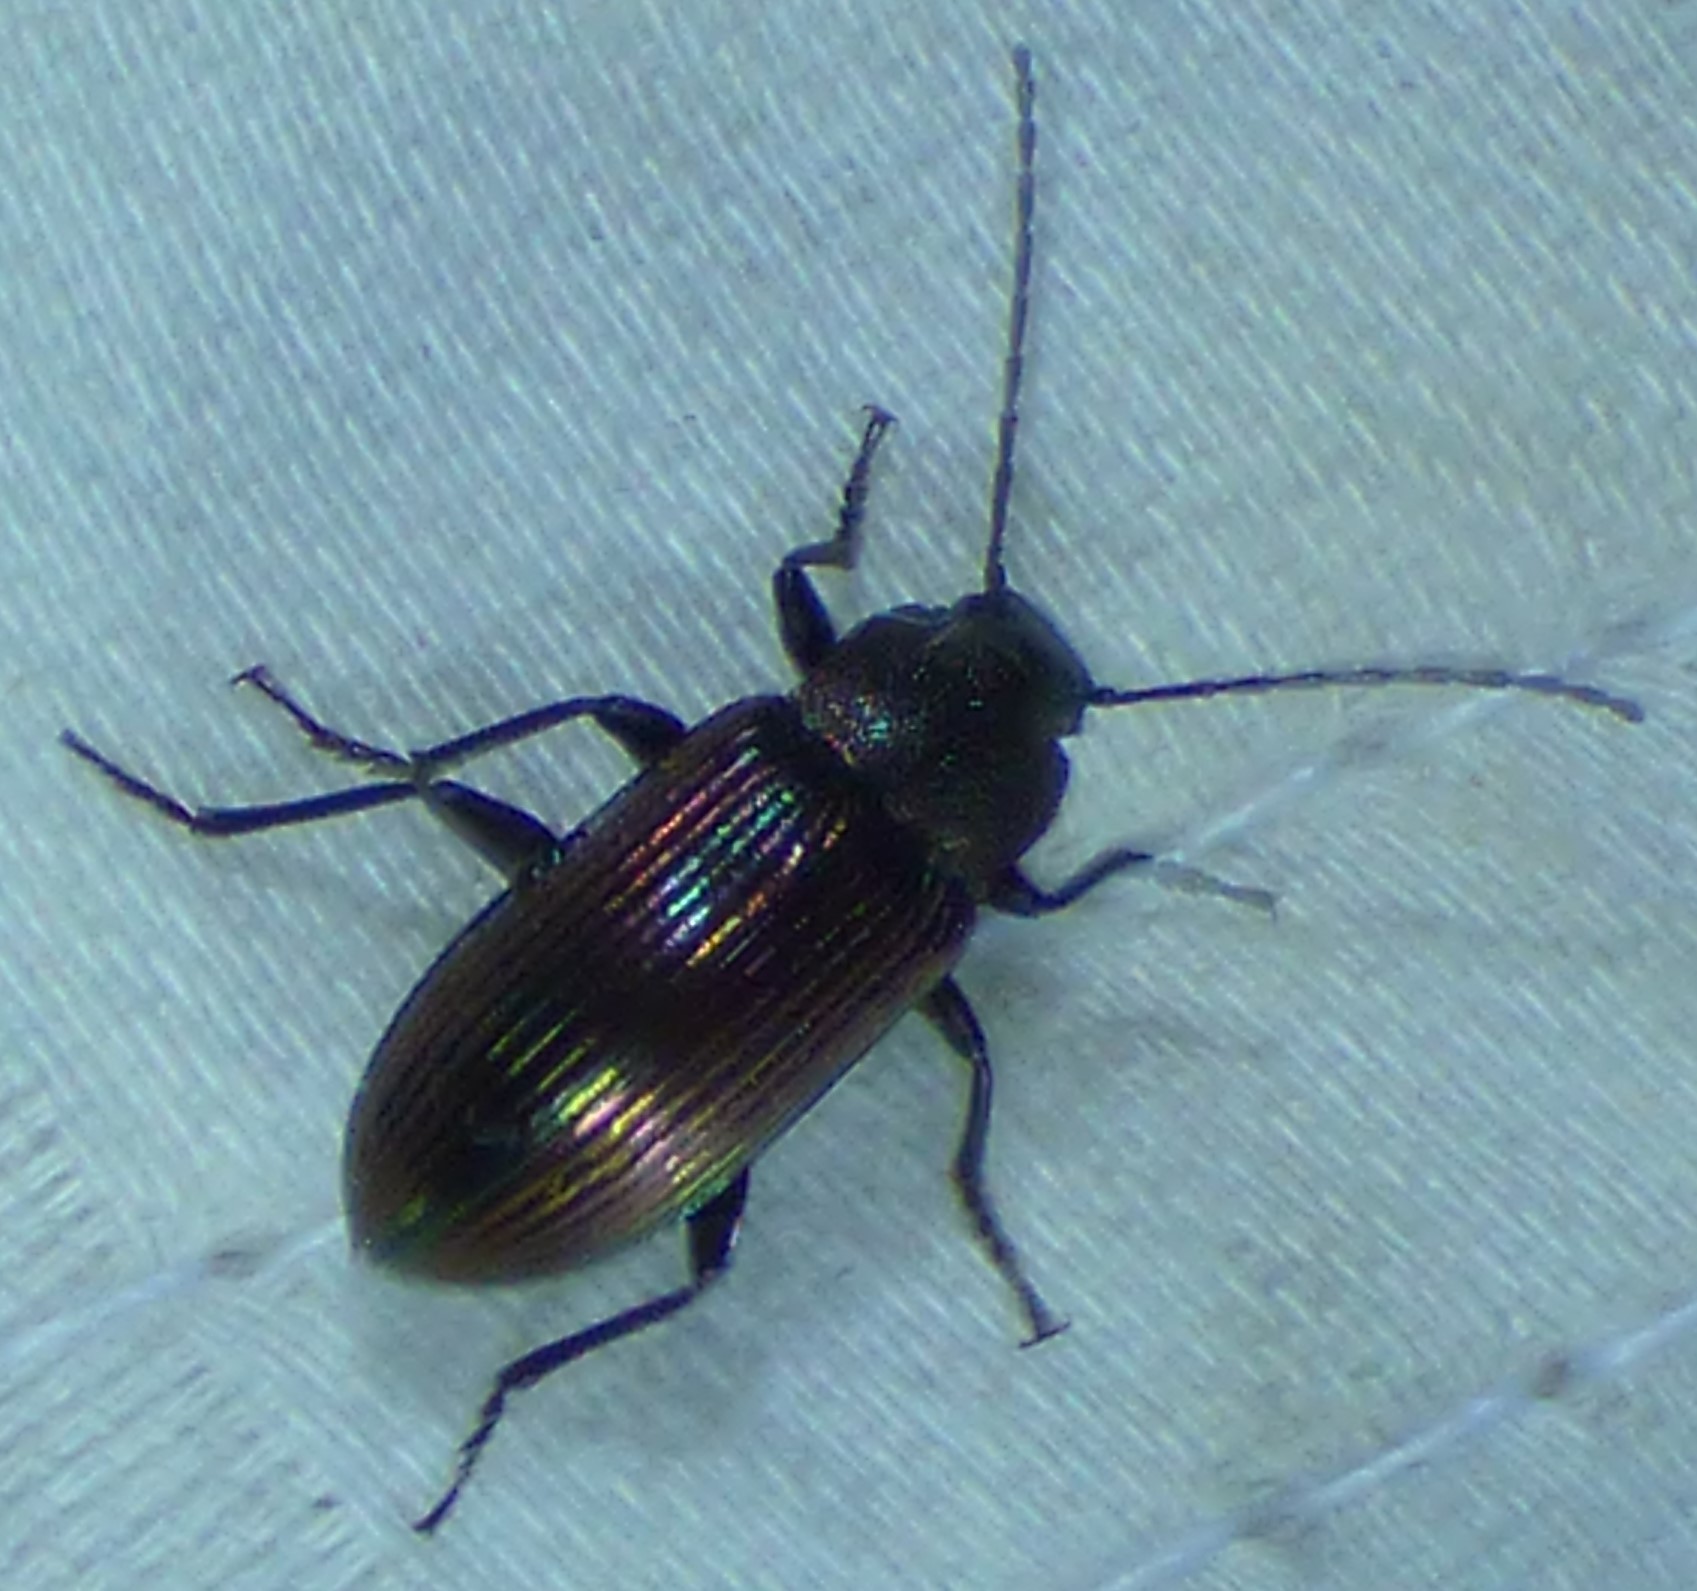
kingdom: Animalia
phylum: Arthropoda
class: Insecta
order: Coleoptera
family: Tenebrionidae
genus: Tarpela
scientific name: Tarpela venusta
